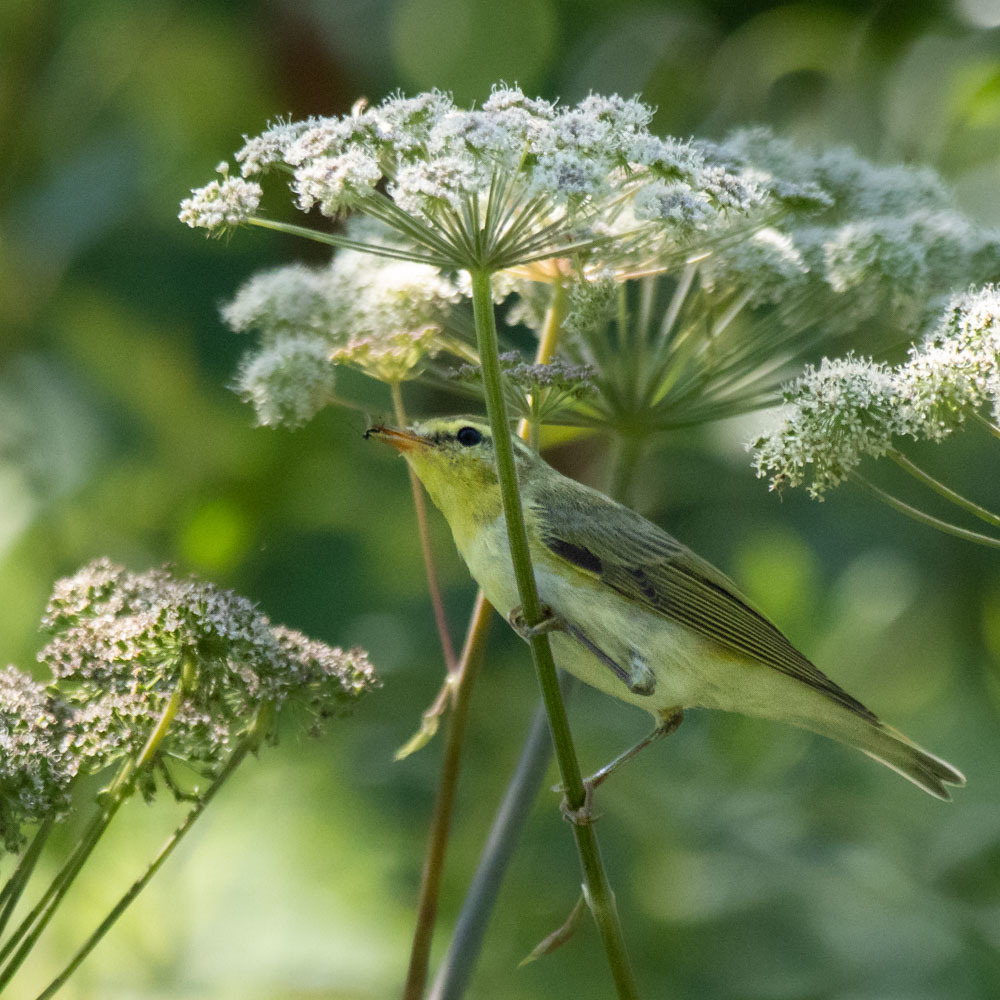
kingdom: Animalia
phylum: Chordata
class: Aves
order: Passeriformes
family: Phylloscopidae
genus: Phylloscopus
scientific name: Phylloscopus sibillatrix
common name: Wood warbler
